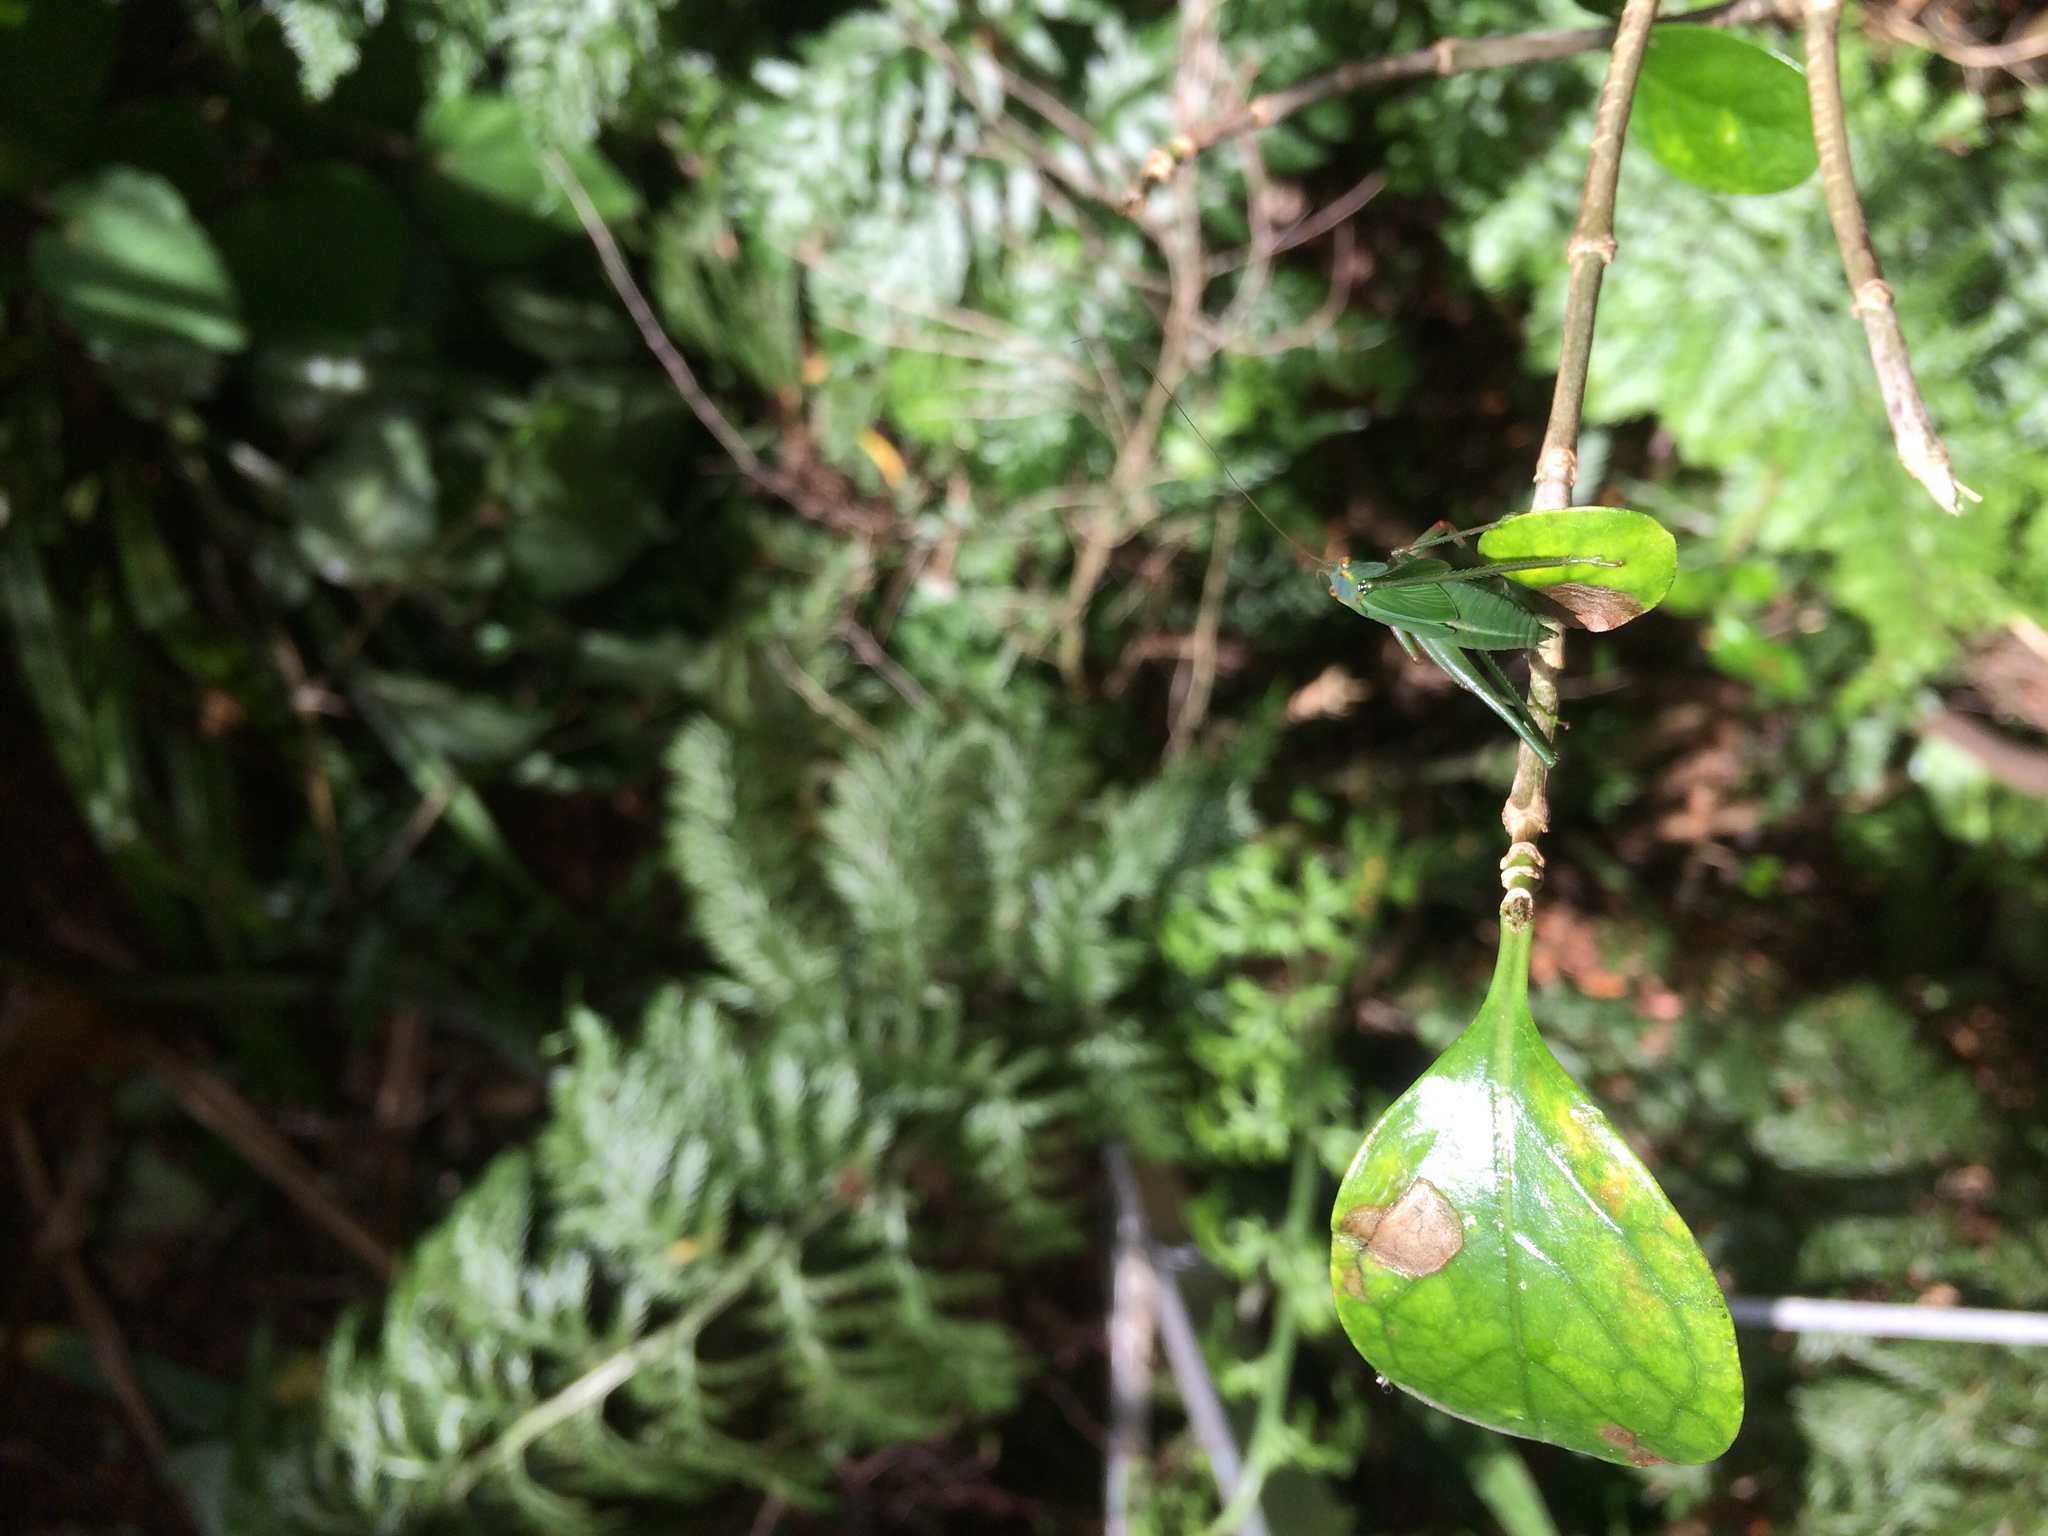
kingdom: Animalia
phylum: Arthropoda
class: Insecta
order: Orthoptera
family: Tettigoniidae
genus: Caedicia
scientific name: Caedicia simplex
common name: Common garden katydid
